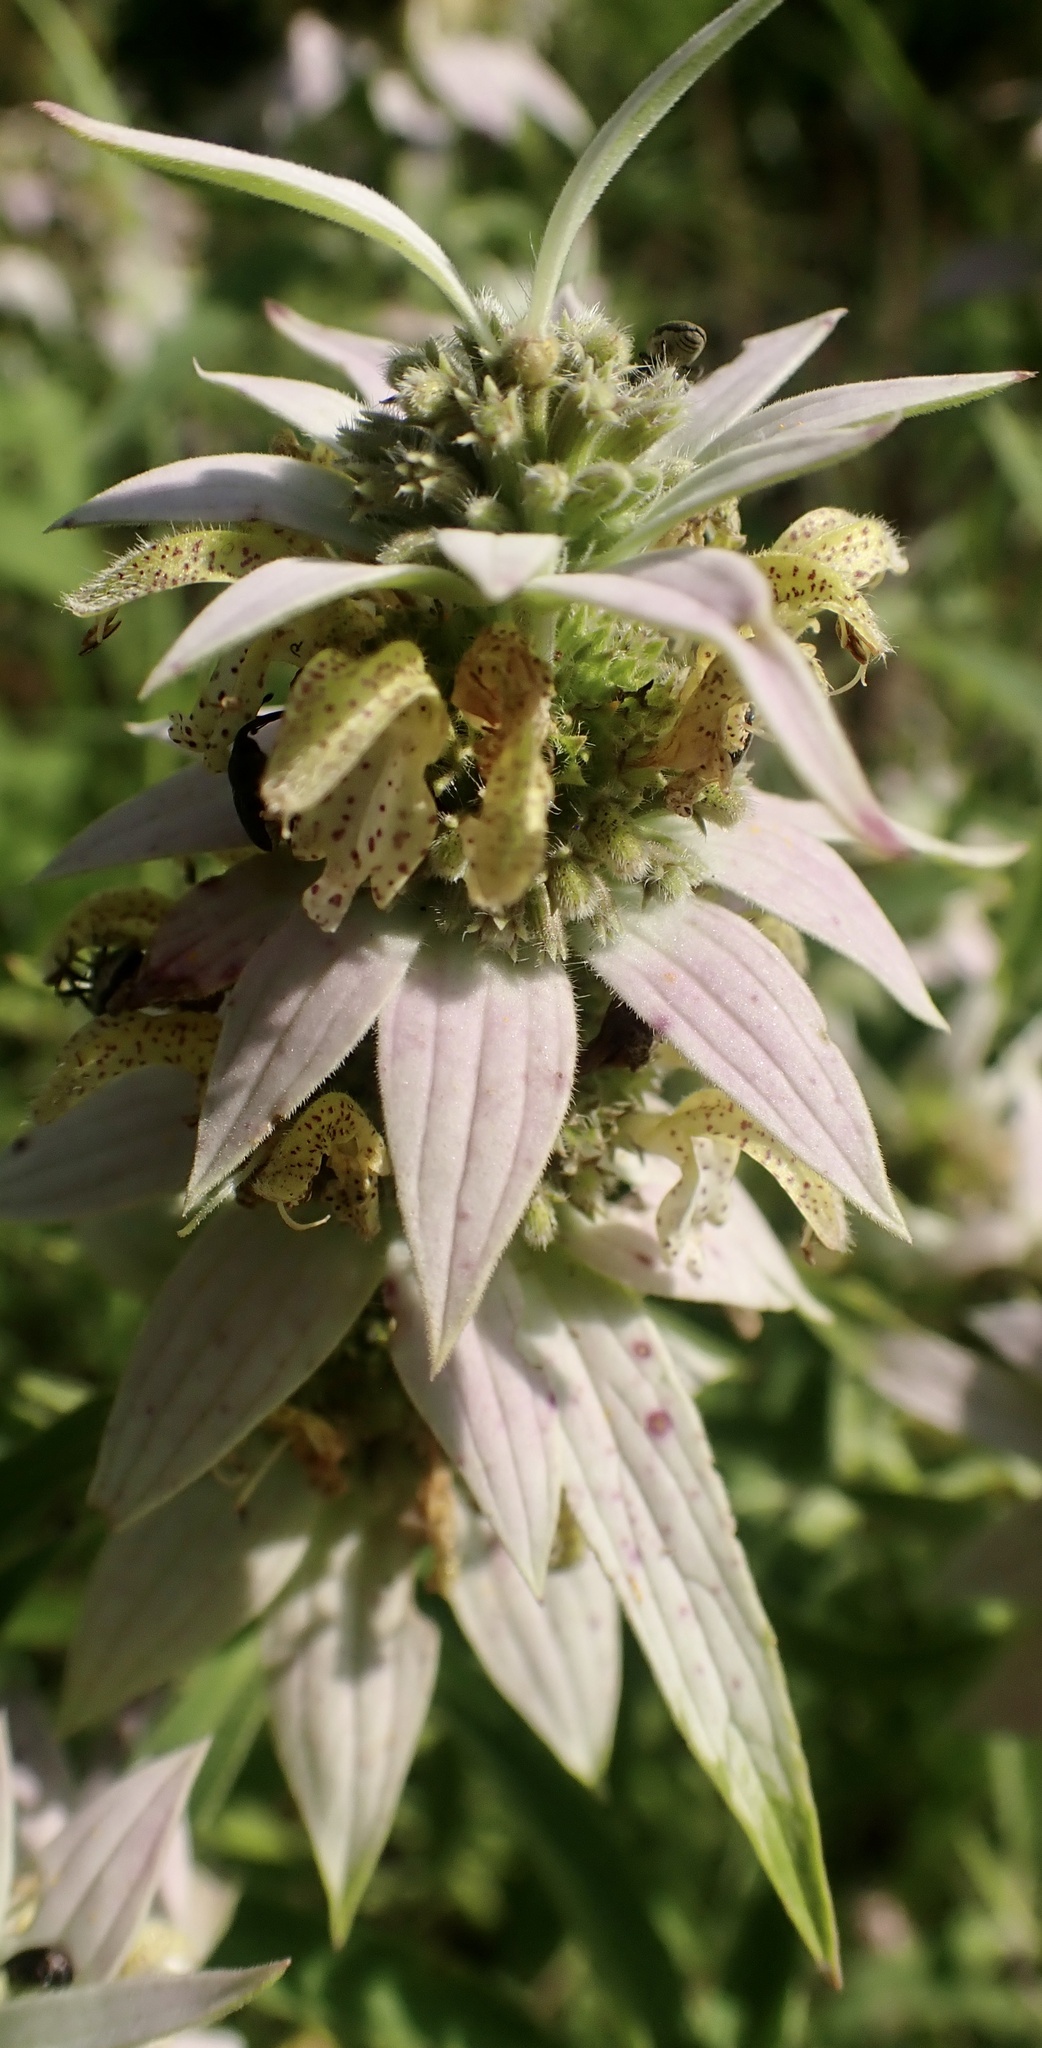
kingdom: Plantae
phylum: Tracheophyta
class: Magnoliopsida
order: Lamiales
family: Lamiaceae
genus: Monarda
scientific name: Monarda punctata
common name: Dotted monarda
